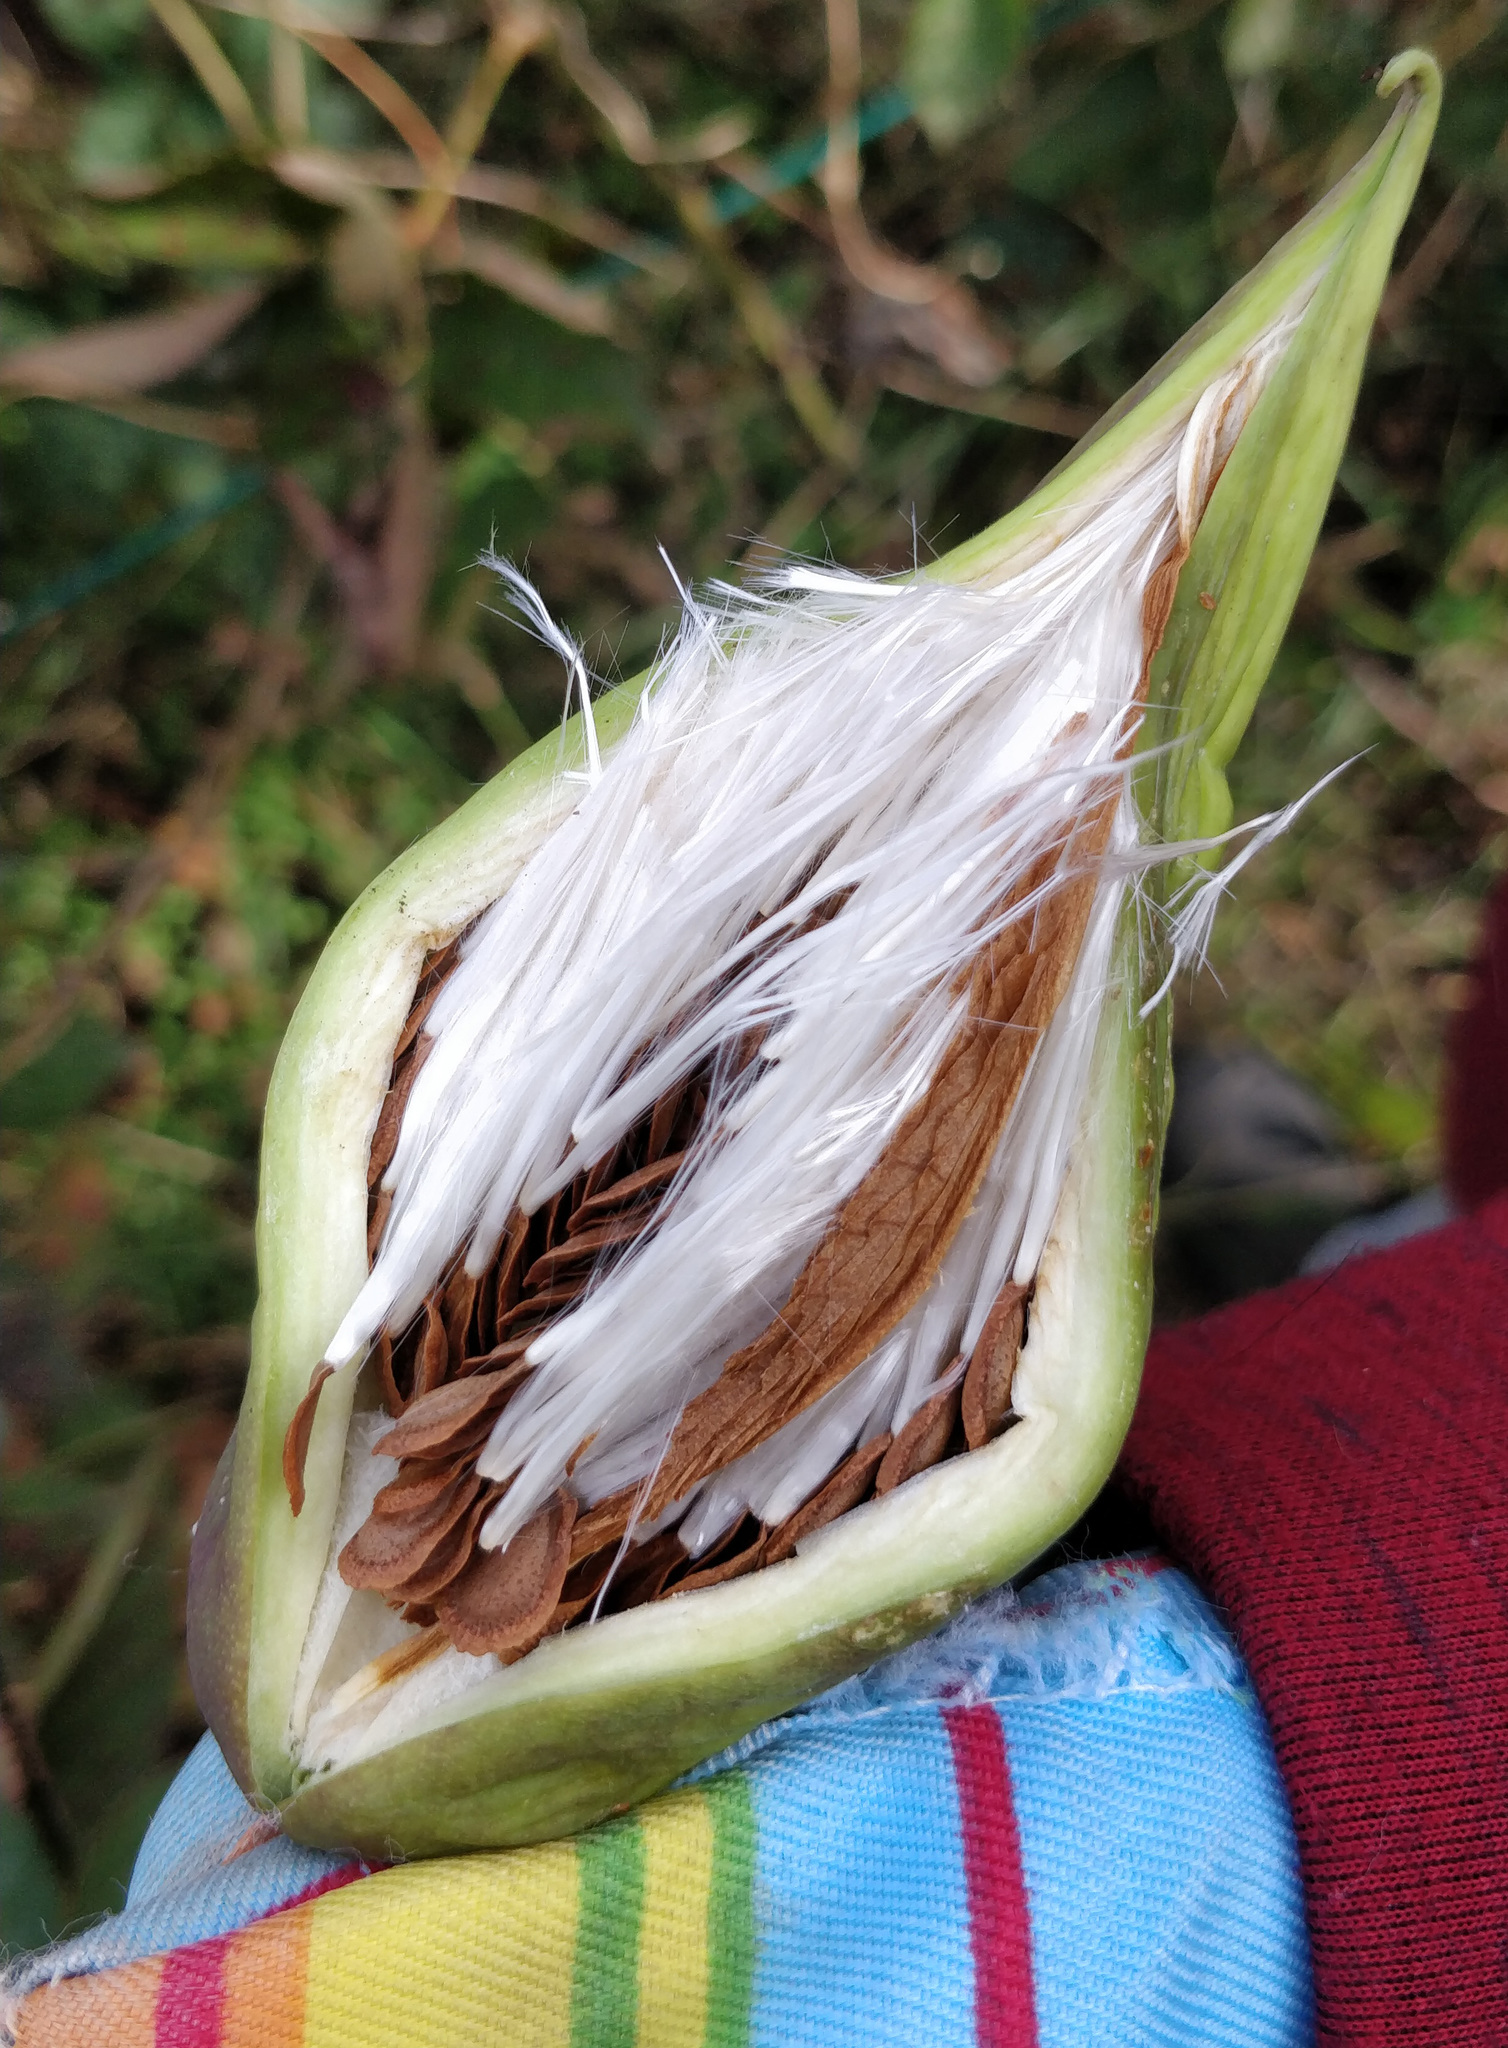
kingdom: Plantae
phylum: Tracheophyta
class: Magnoliopsida
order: Gentianales
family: Apocynaceae
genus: Cynanchum
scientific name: Cynanchum laeve
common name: Sandvine
